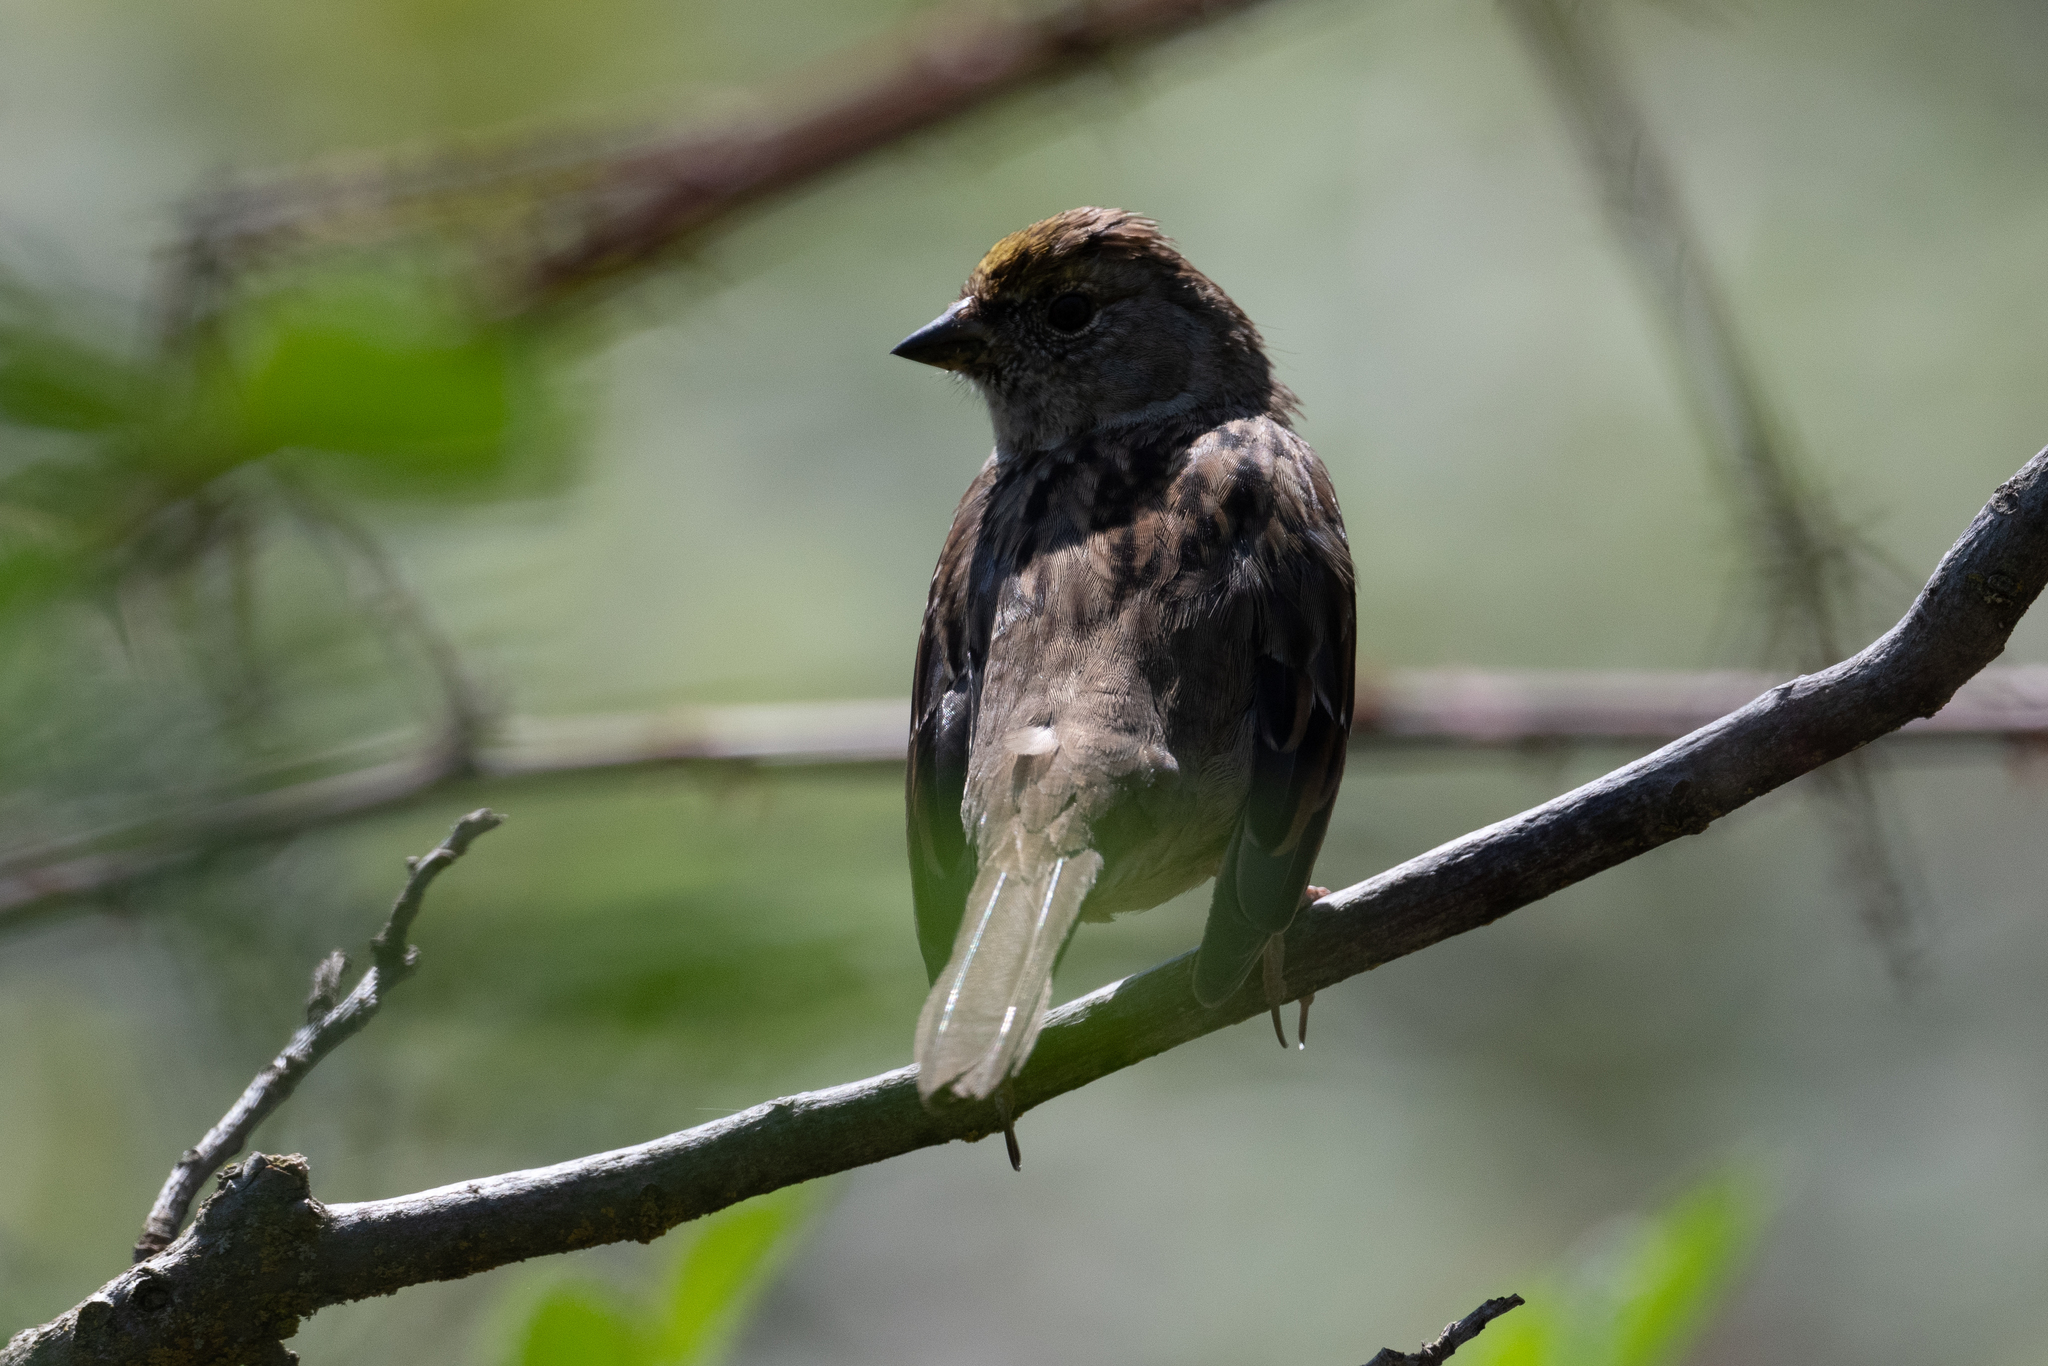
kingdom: Animalia
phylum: Chordata
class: Aves
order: Passeriformes
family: Passerellidae
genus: Zonotrichia
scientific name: Zonotrichia atricapilla
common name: Golden-crowned sparrow
